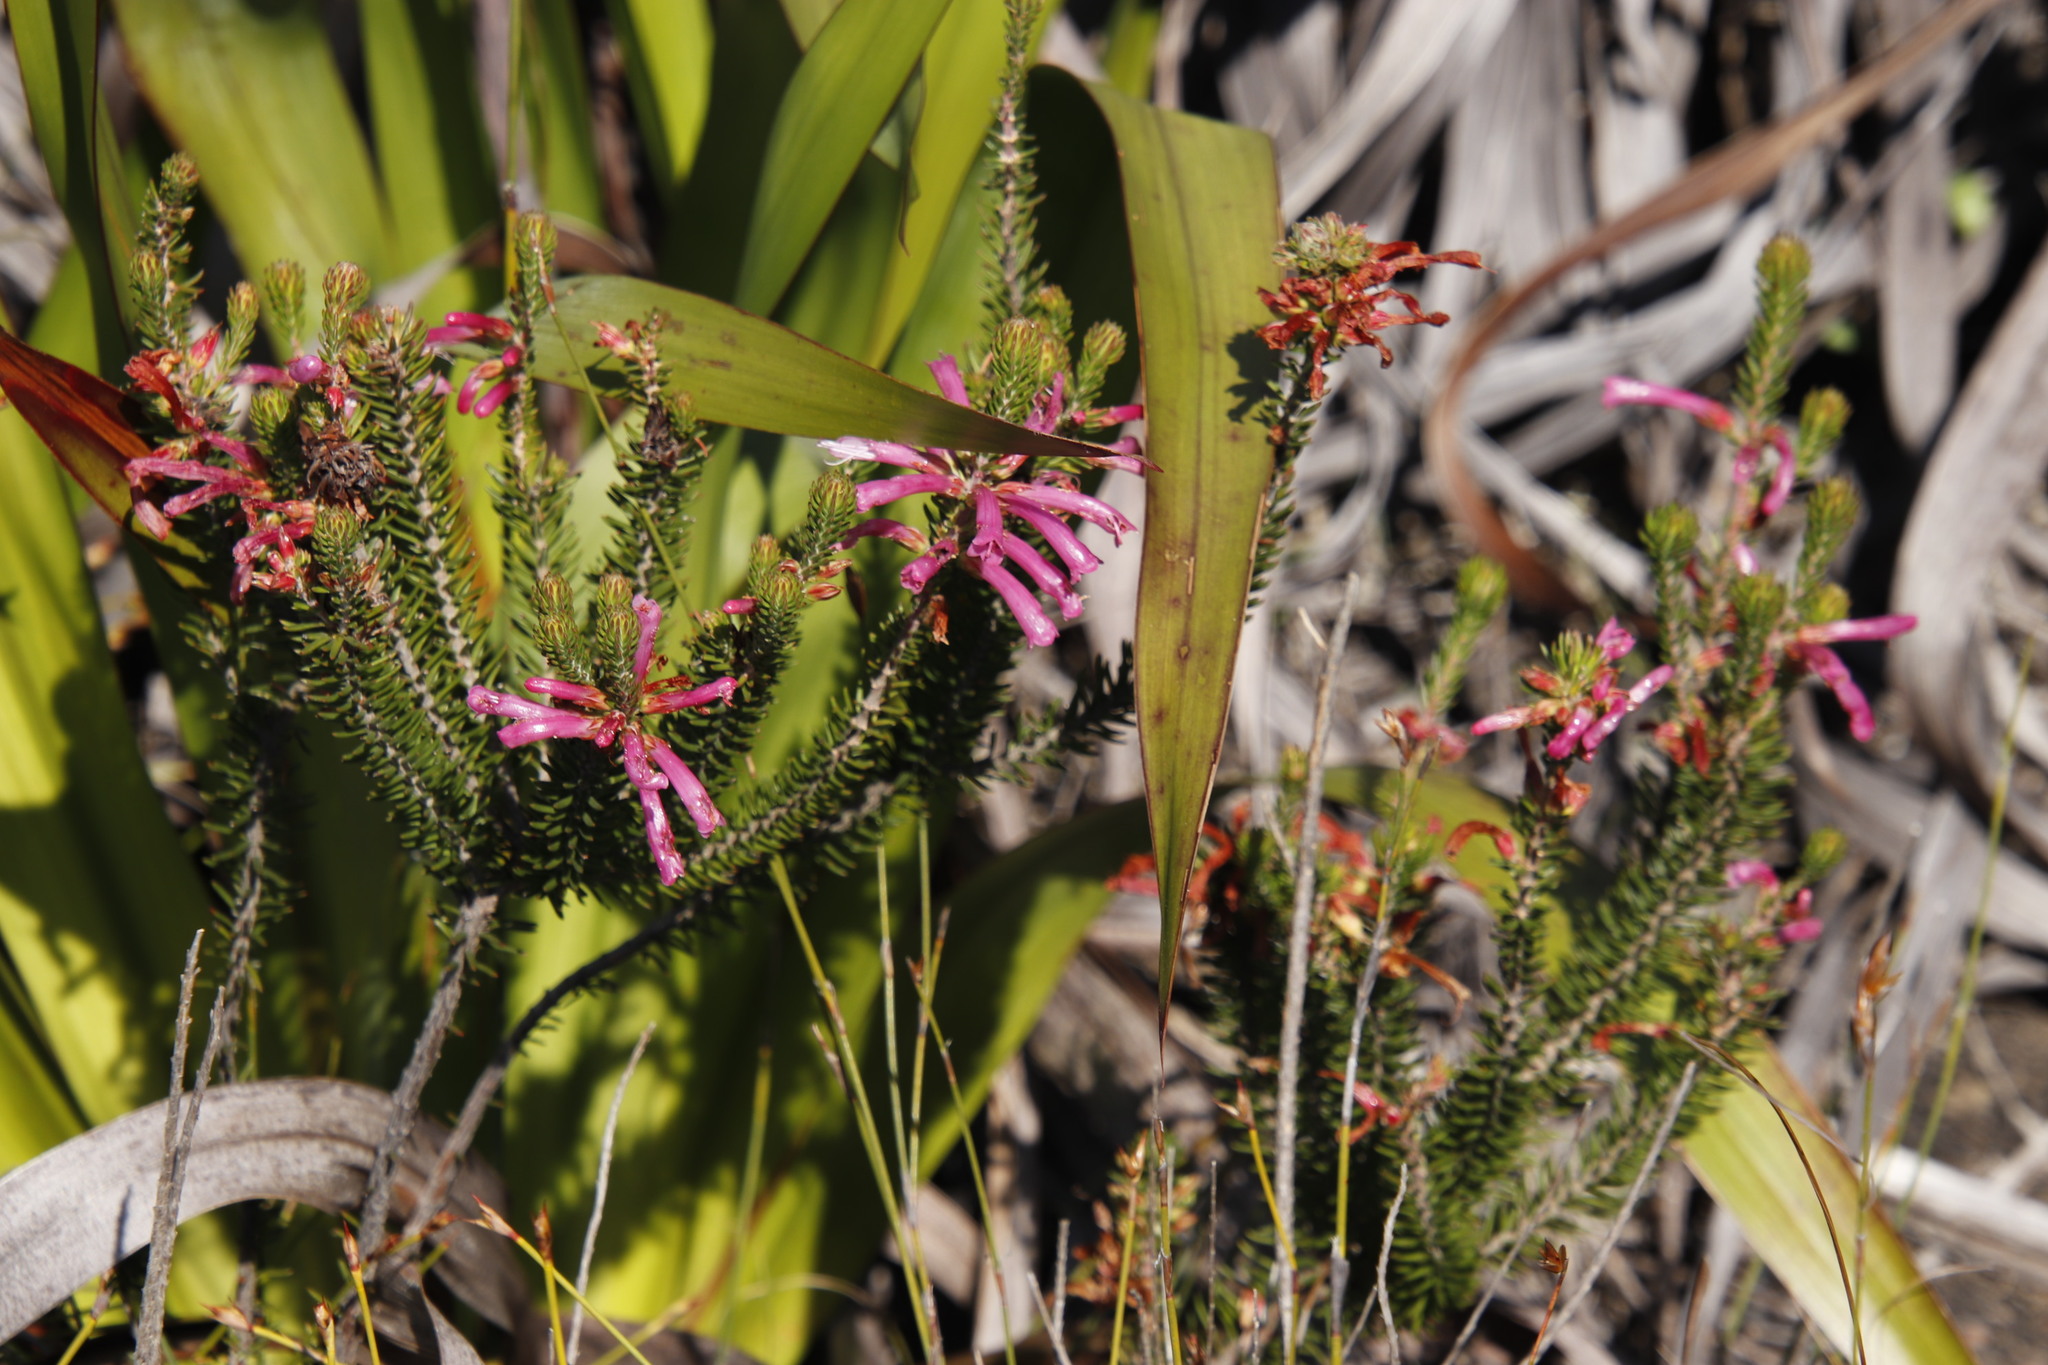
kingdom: Plantae
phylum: Tracheophyta
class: Magnoliopsida
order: Ericales
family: Ericaceae
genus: Erica
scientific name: Erica abietina
